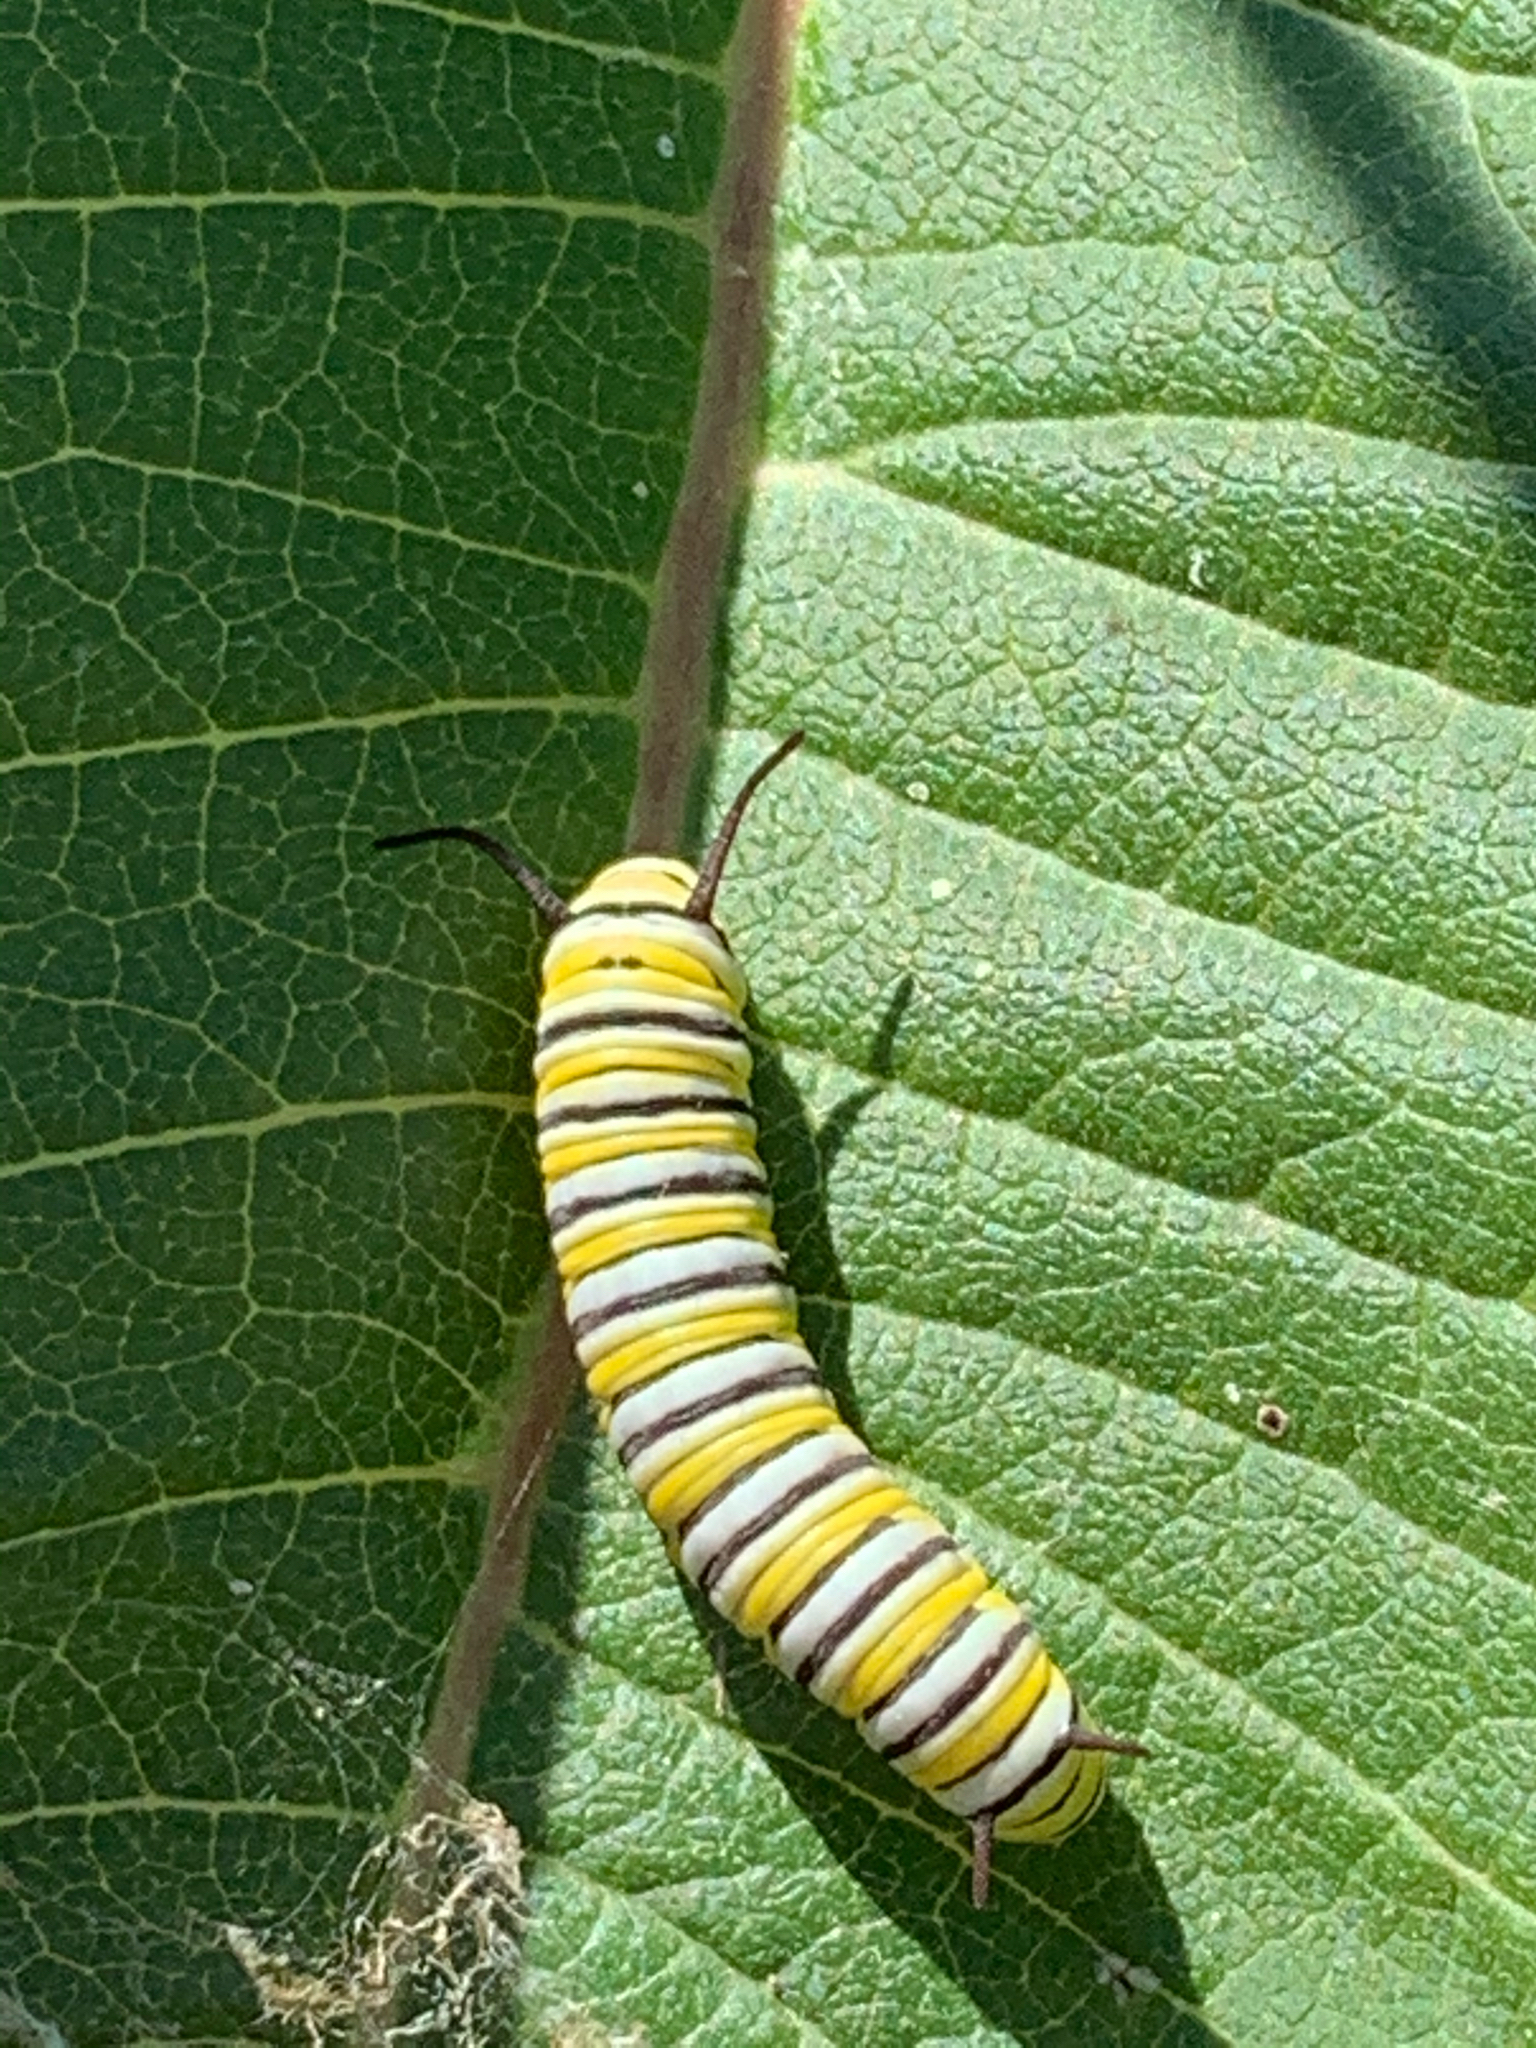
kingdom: Animalia
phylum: Arthropoda
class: Insecta
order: Lepidoptera
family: Nymphalidae
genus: Danaus
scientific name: Danaus plexippus
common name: Monarch
